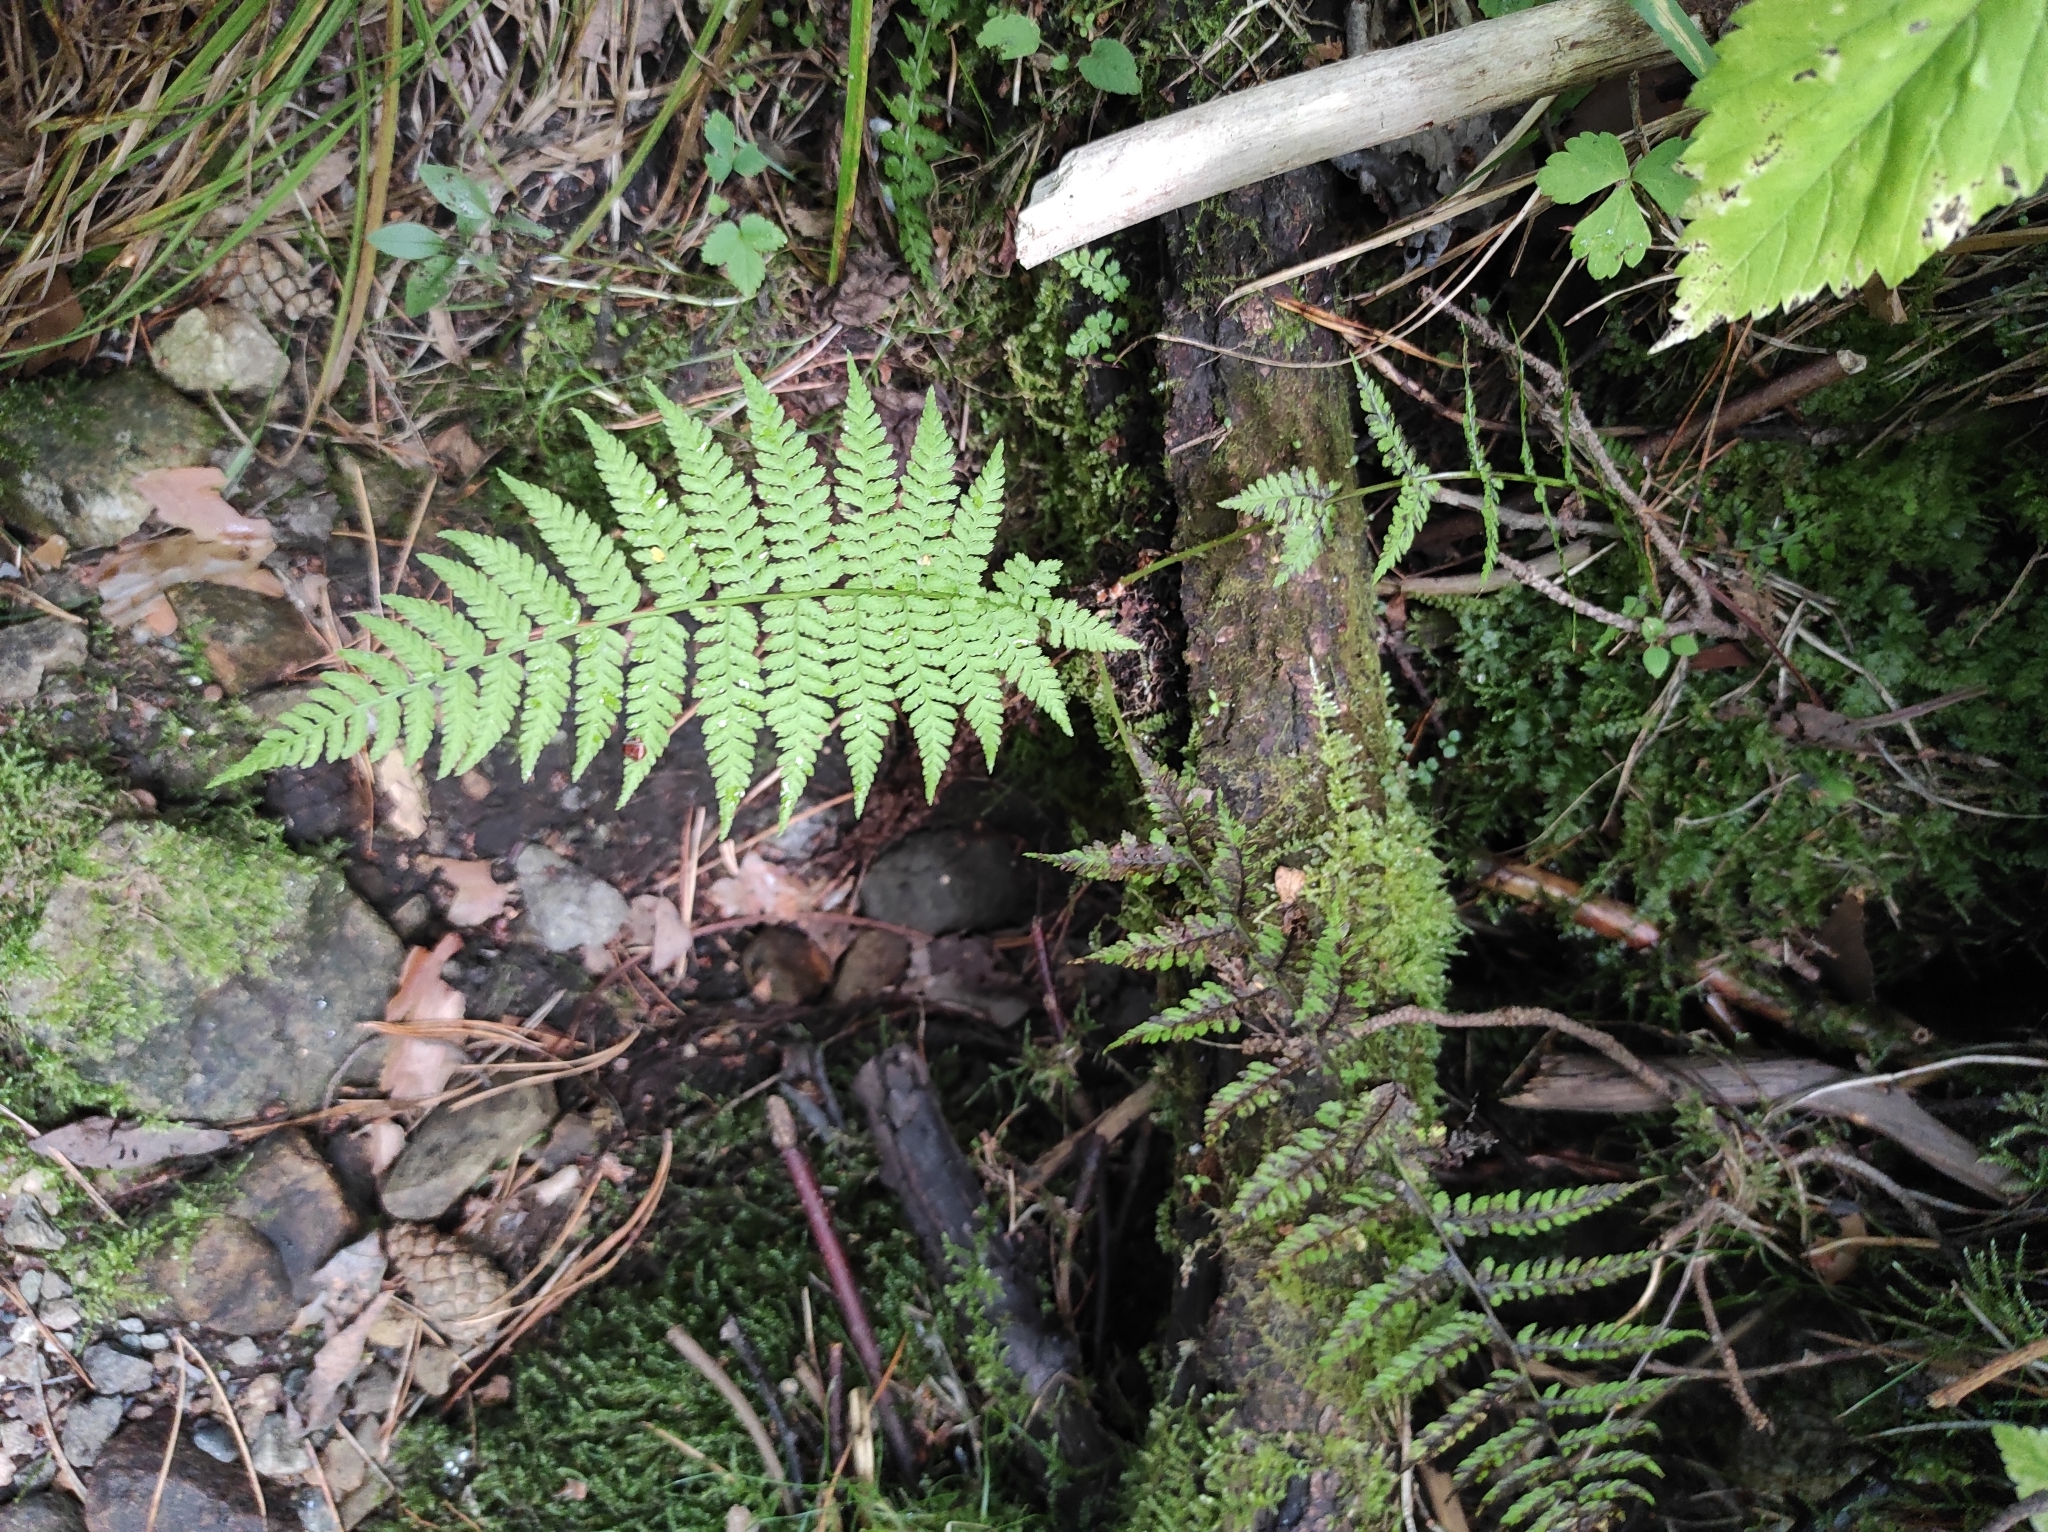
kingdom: Plantae
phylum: Tracheophyta
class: Polypodiopsida
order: Polypodiales
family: Athyriaceae
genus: Athyrium
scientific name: Athyrium filix-femina
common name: Lady fern
